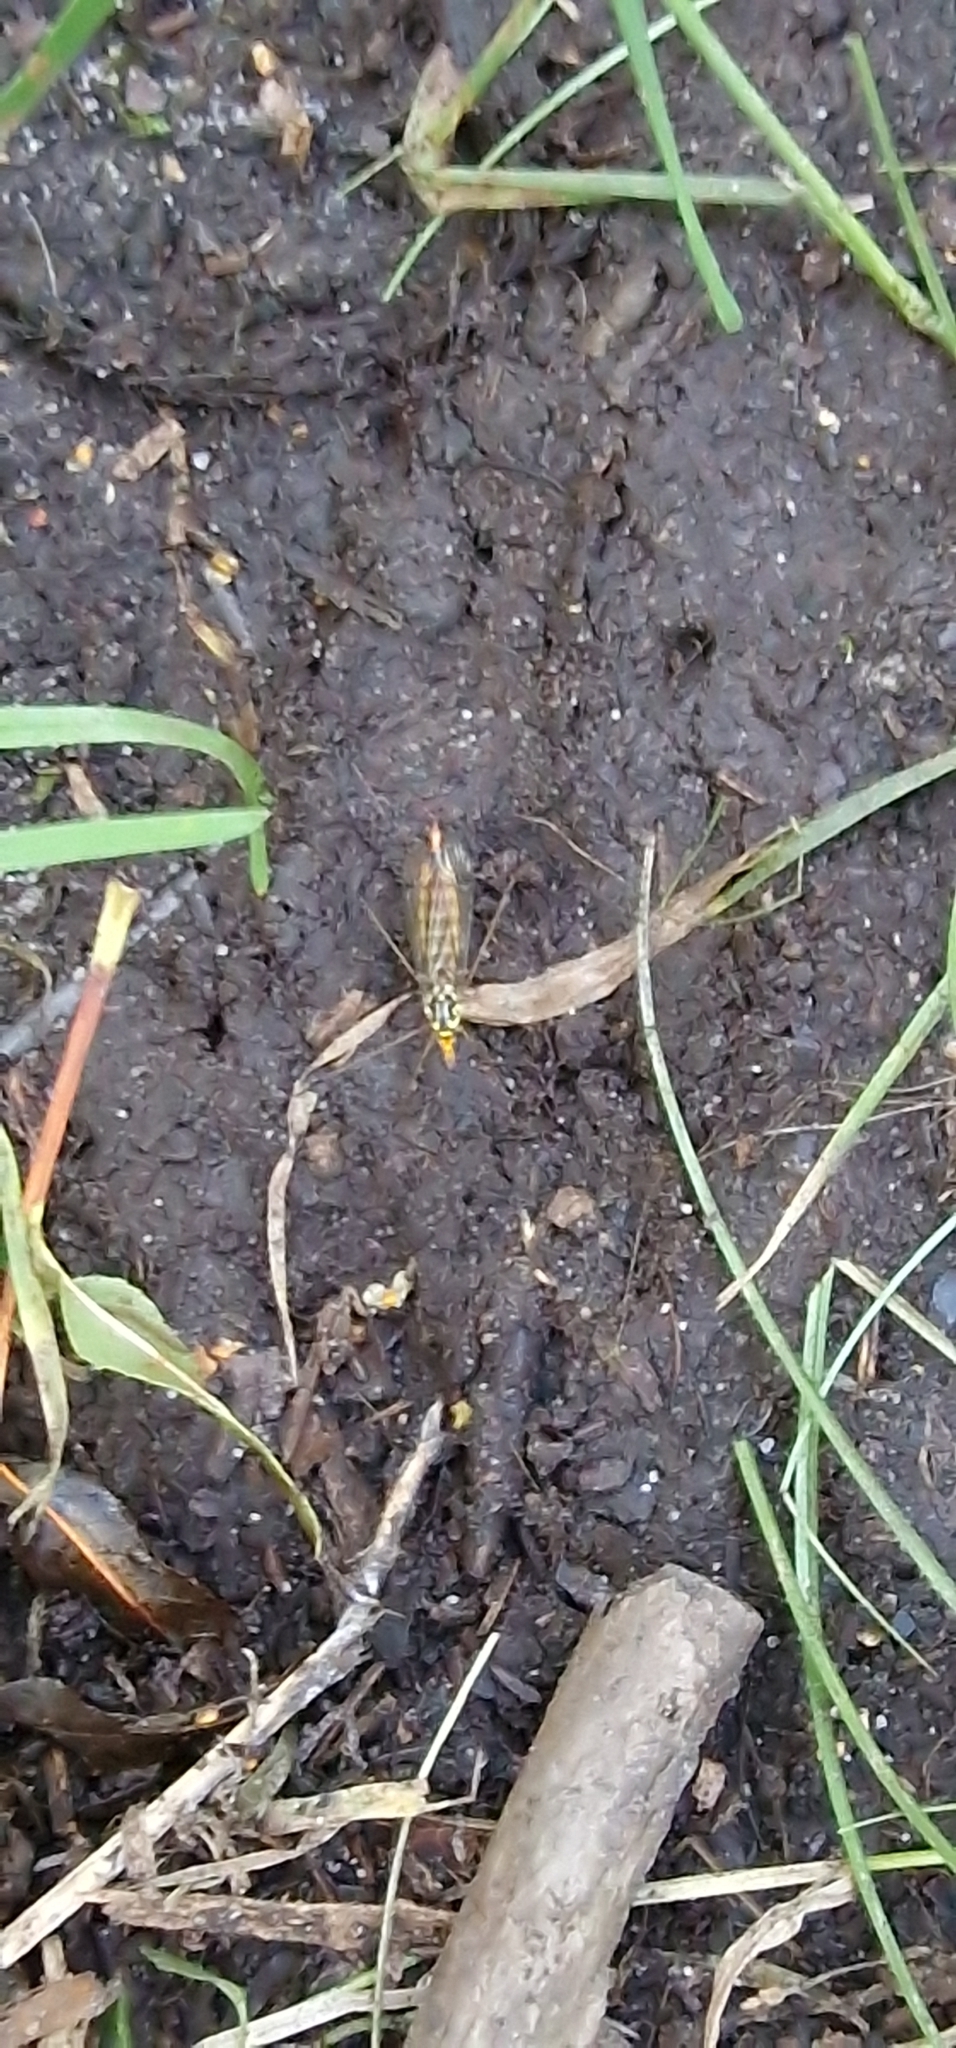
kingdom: Animalia
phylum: Arthropoda
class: Insecta
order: Diptera
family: Tipulidae
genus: Nephrotoma
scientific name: Nephrotoma flavipalpis
